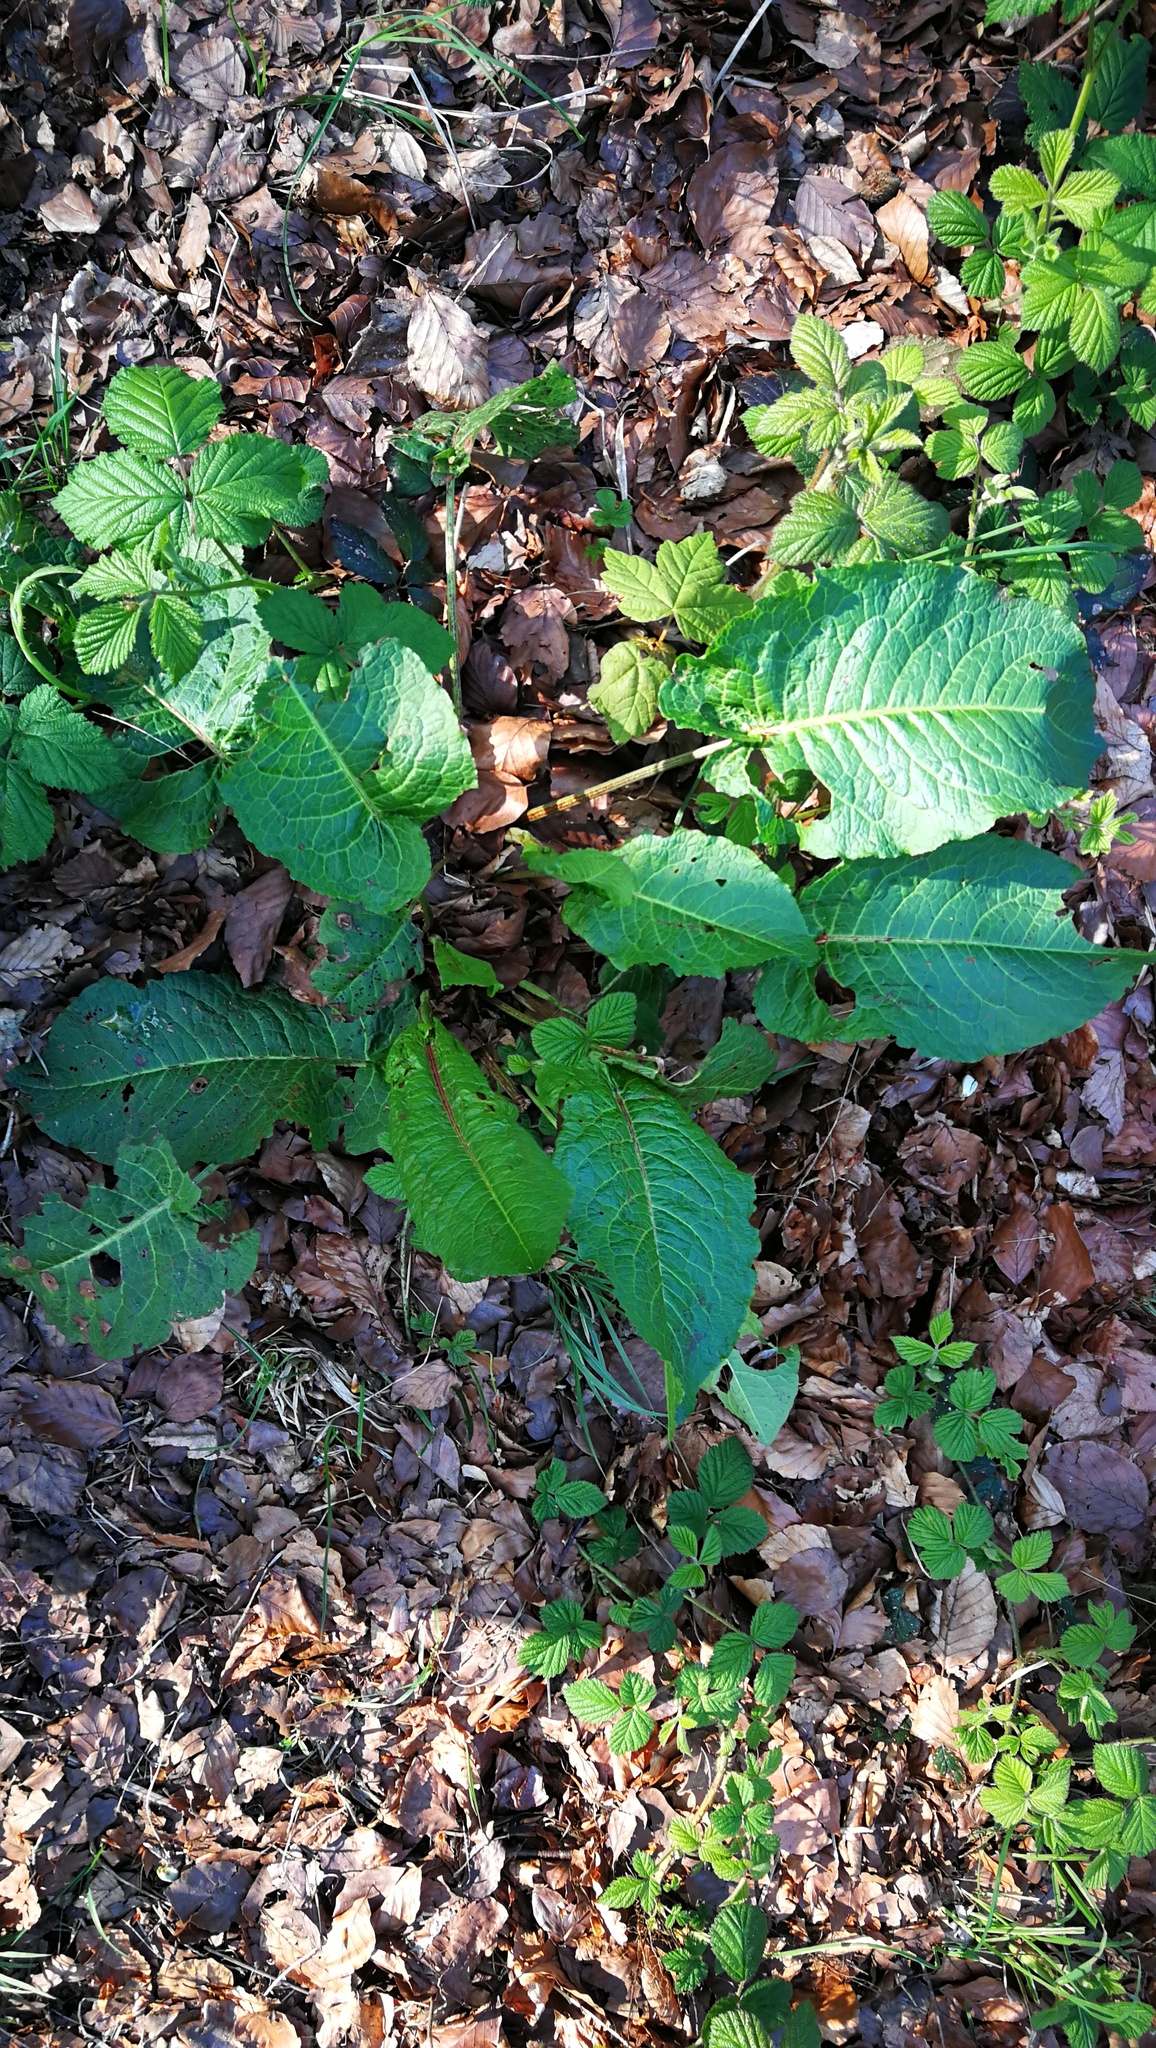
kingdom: Plantae
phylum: Tracheophyta
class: Magnoliopsida
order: Caryophyllales
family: Polygonaceae
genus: Rumex
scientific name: Rumex obtusifolius
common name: Bitter dock
